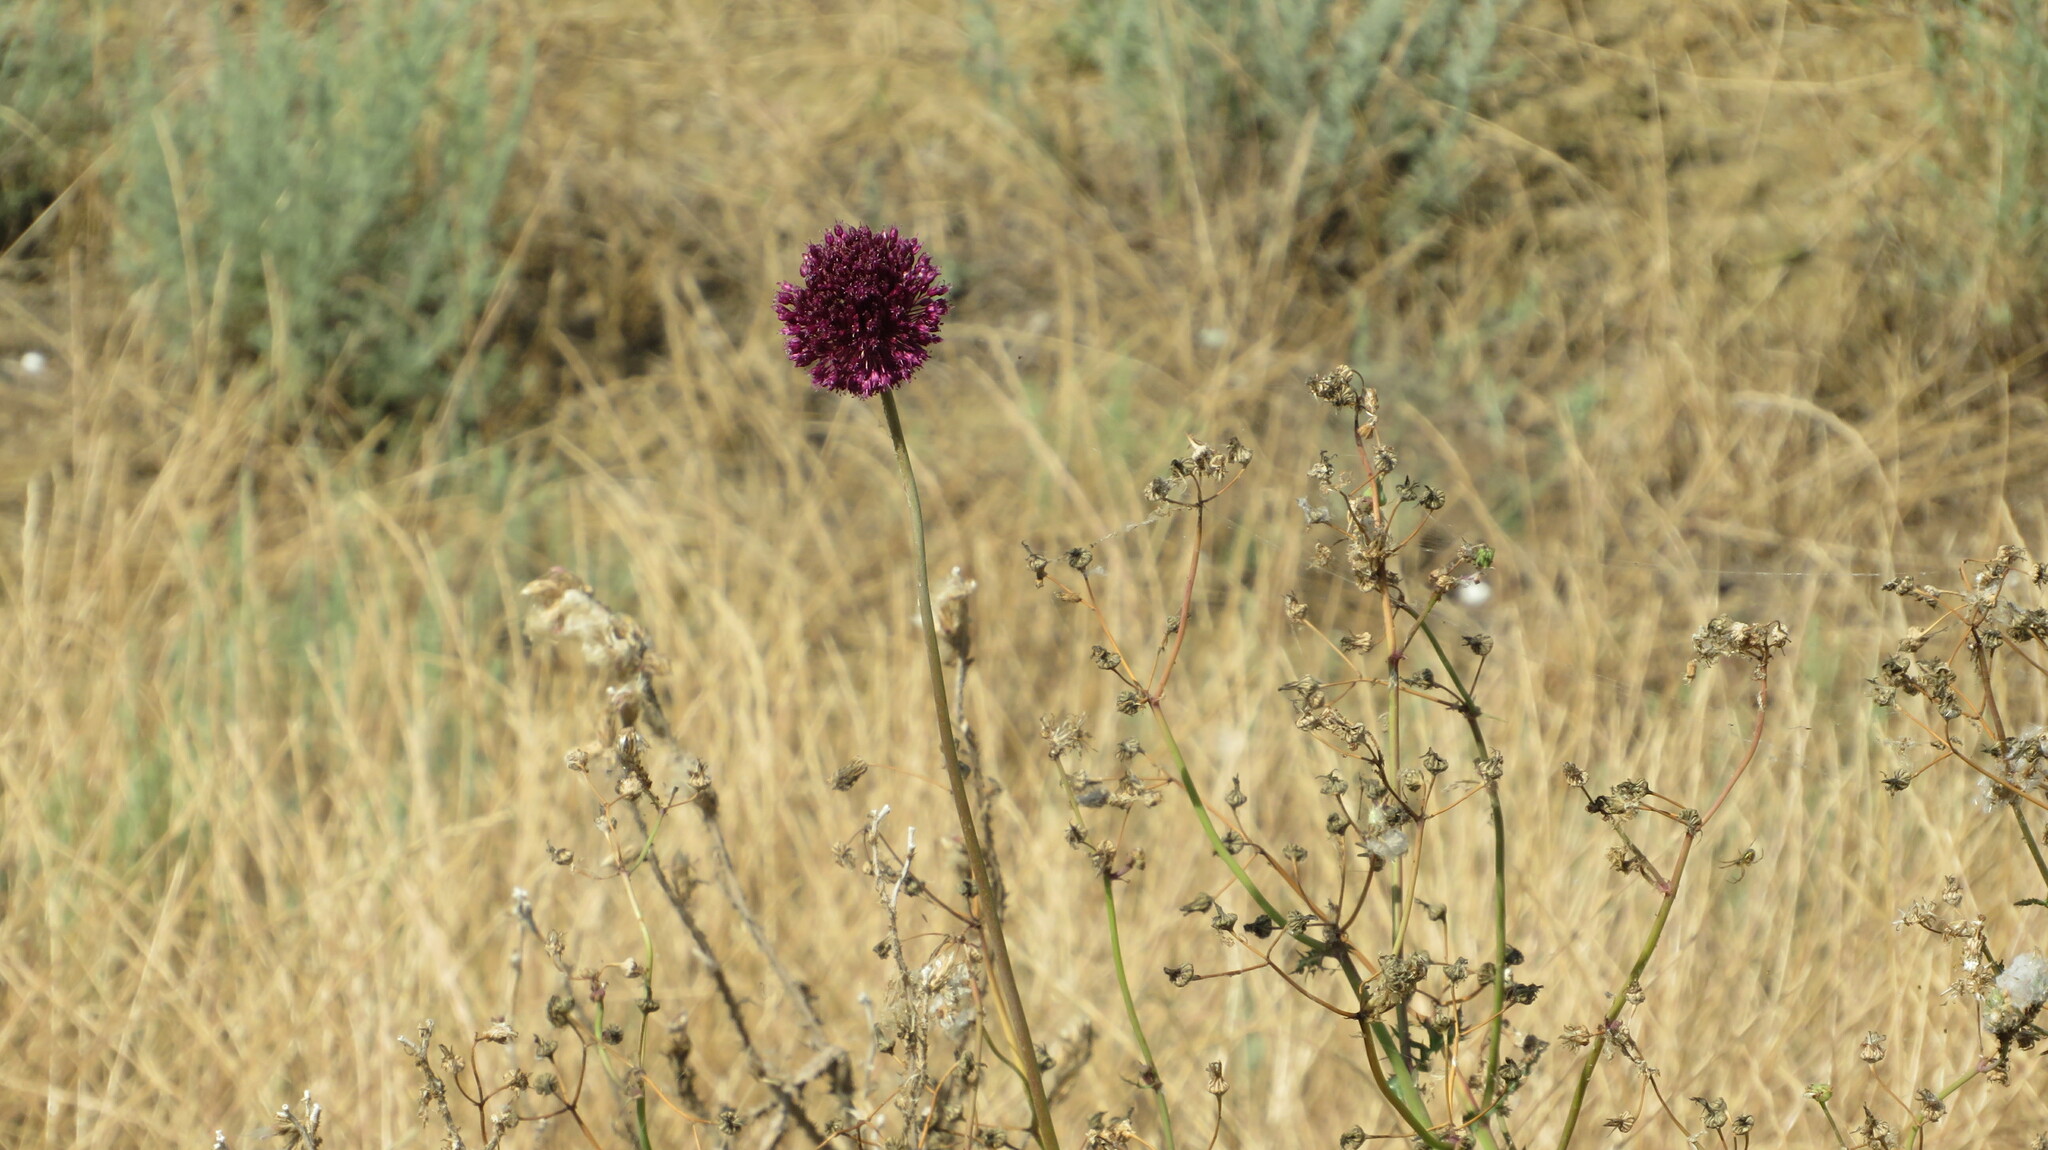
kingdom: Plantae
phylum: Tracheophyta
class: Liliopsida
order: Asparagales
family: Amaryllidaceae
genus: Allium
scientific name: Allium atroviolaceum
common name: Broadleaf wild leek
